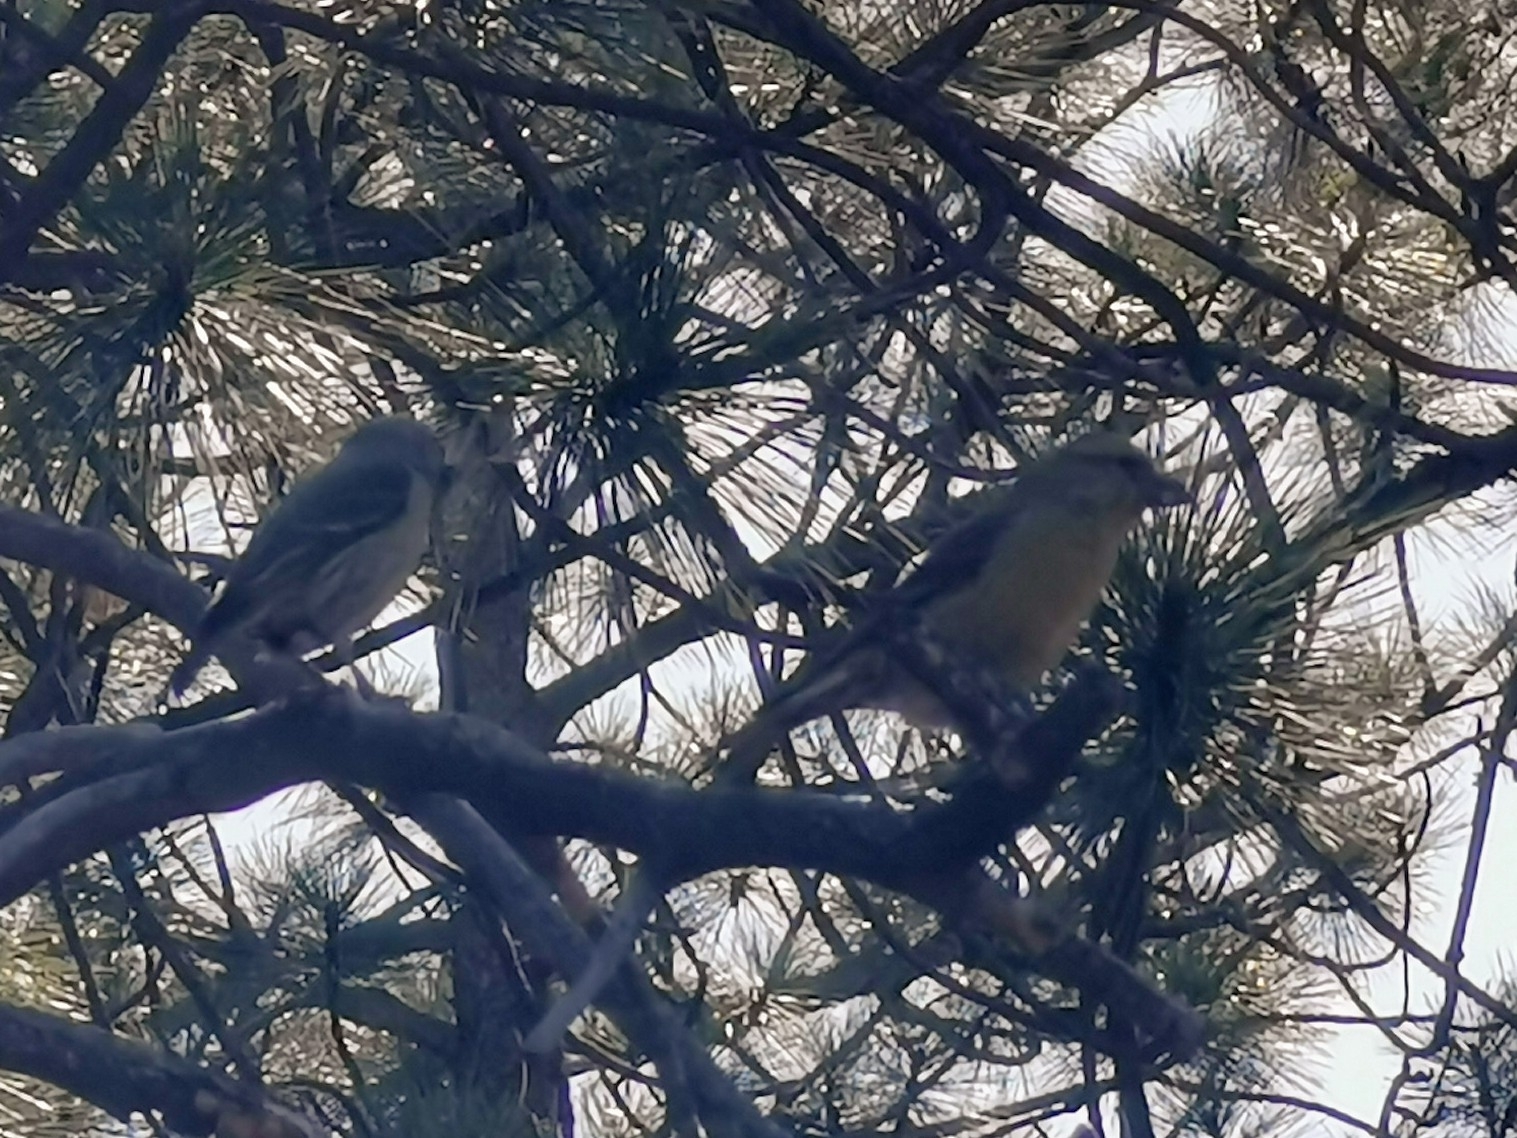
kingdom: Animalia
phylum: Chordata
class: Aves
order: Passeriformes
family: Fringillidae
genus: Loxia
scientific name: Loxia curvirostra
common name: Red crossbill
